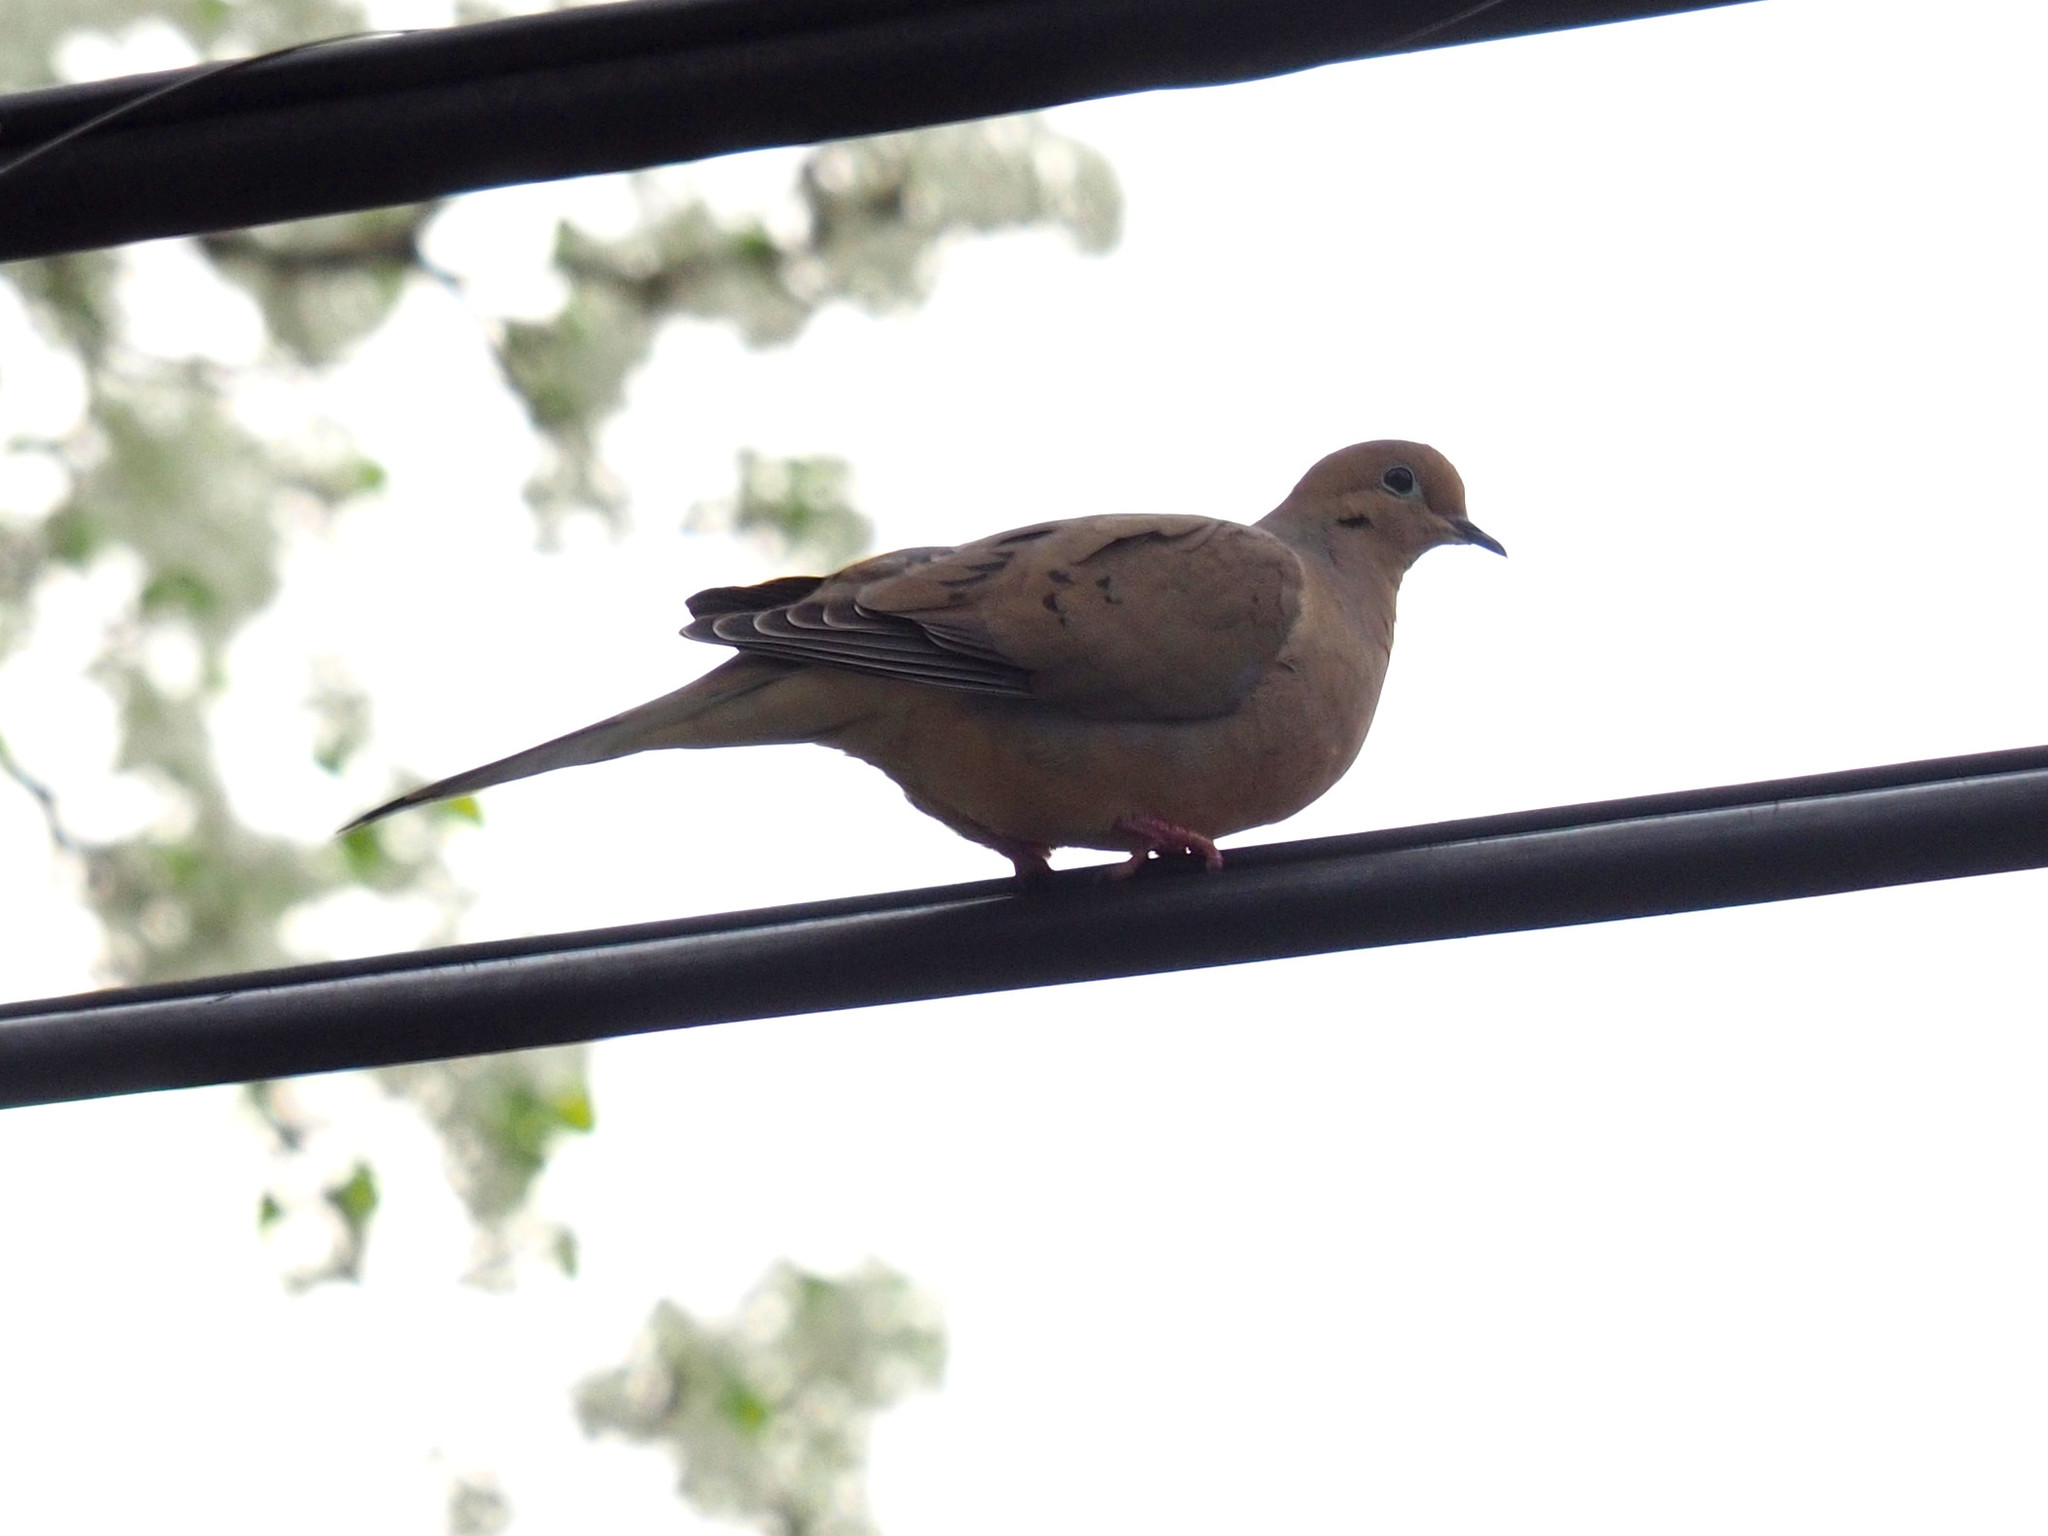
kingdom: Animalia
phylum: Chordata
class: Aves
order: Columbiformes
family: Columbidae
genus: Zenaida
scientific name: Zenaida macroura
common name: Mourning dove
